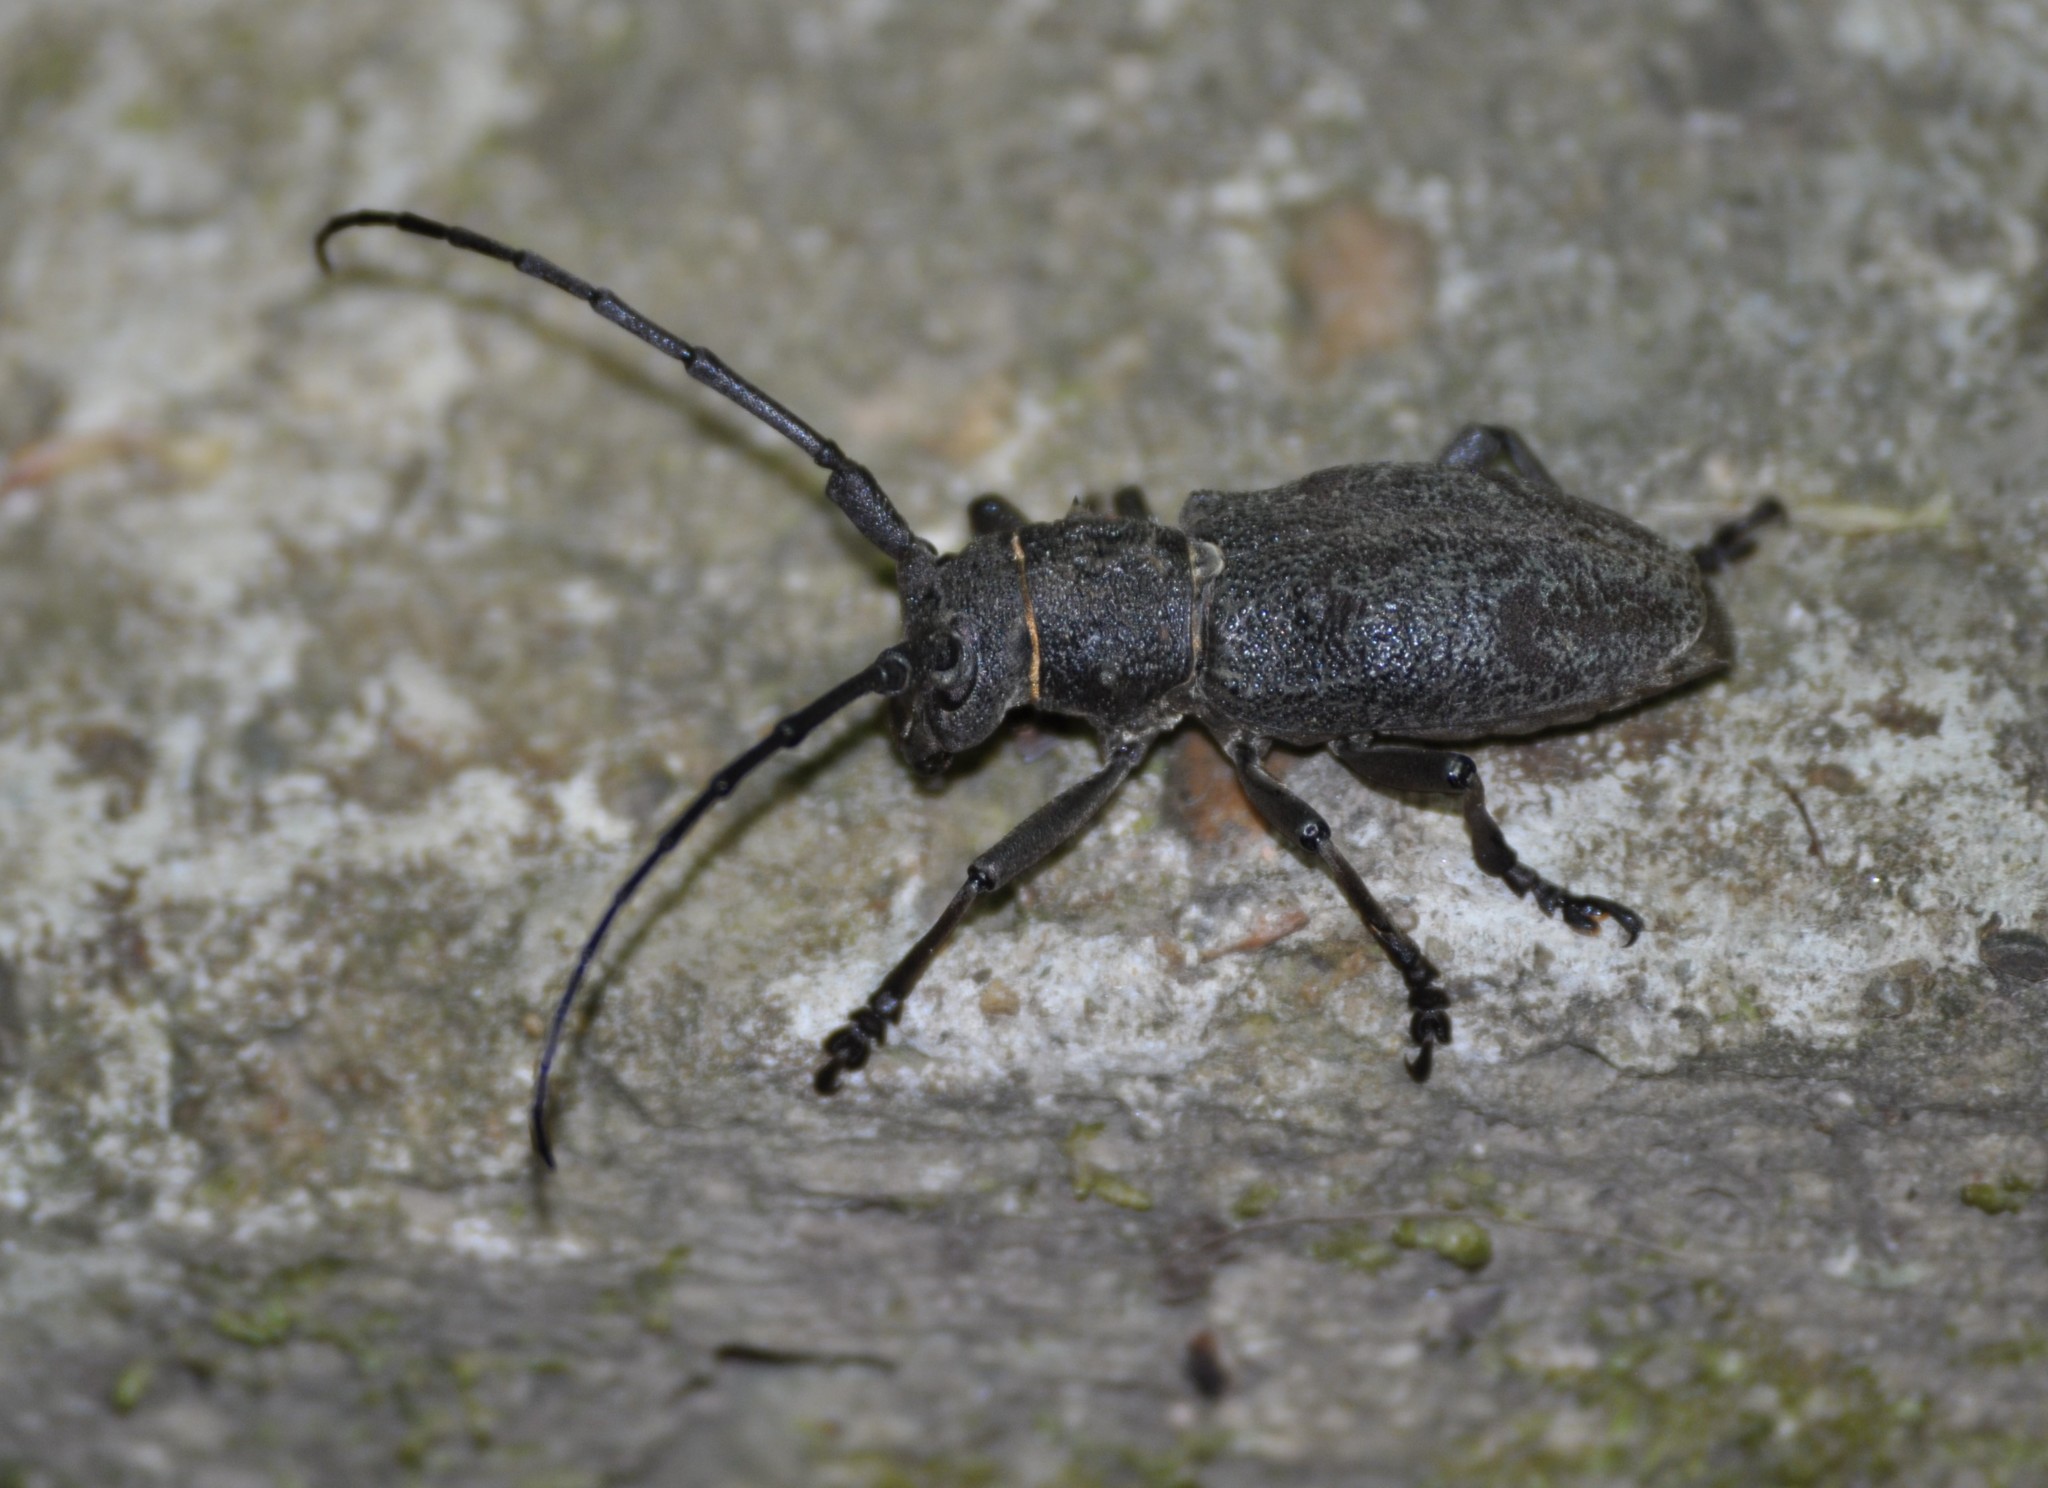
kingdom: Animalia
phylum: Arthropoda
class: Insecta
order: Coleoptera
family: Cerambycidae
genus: Morimus
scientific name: Morimus verecundus
